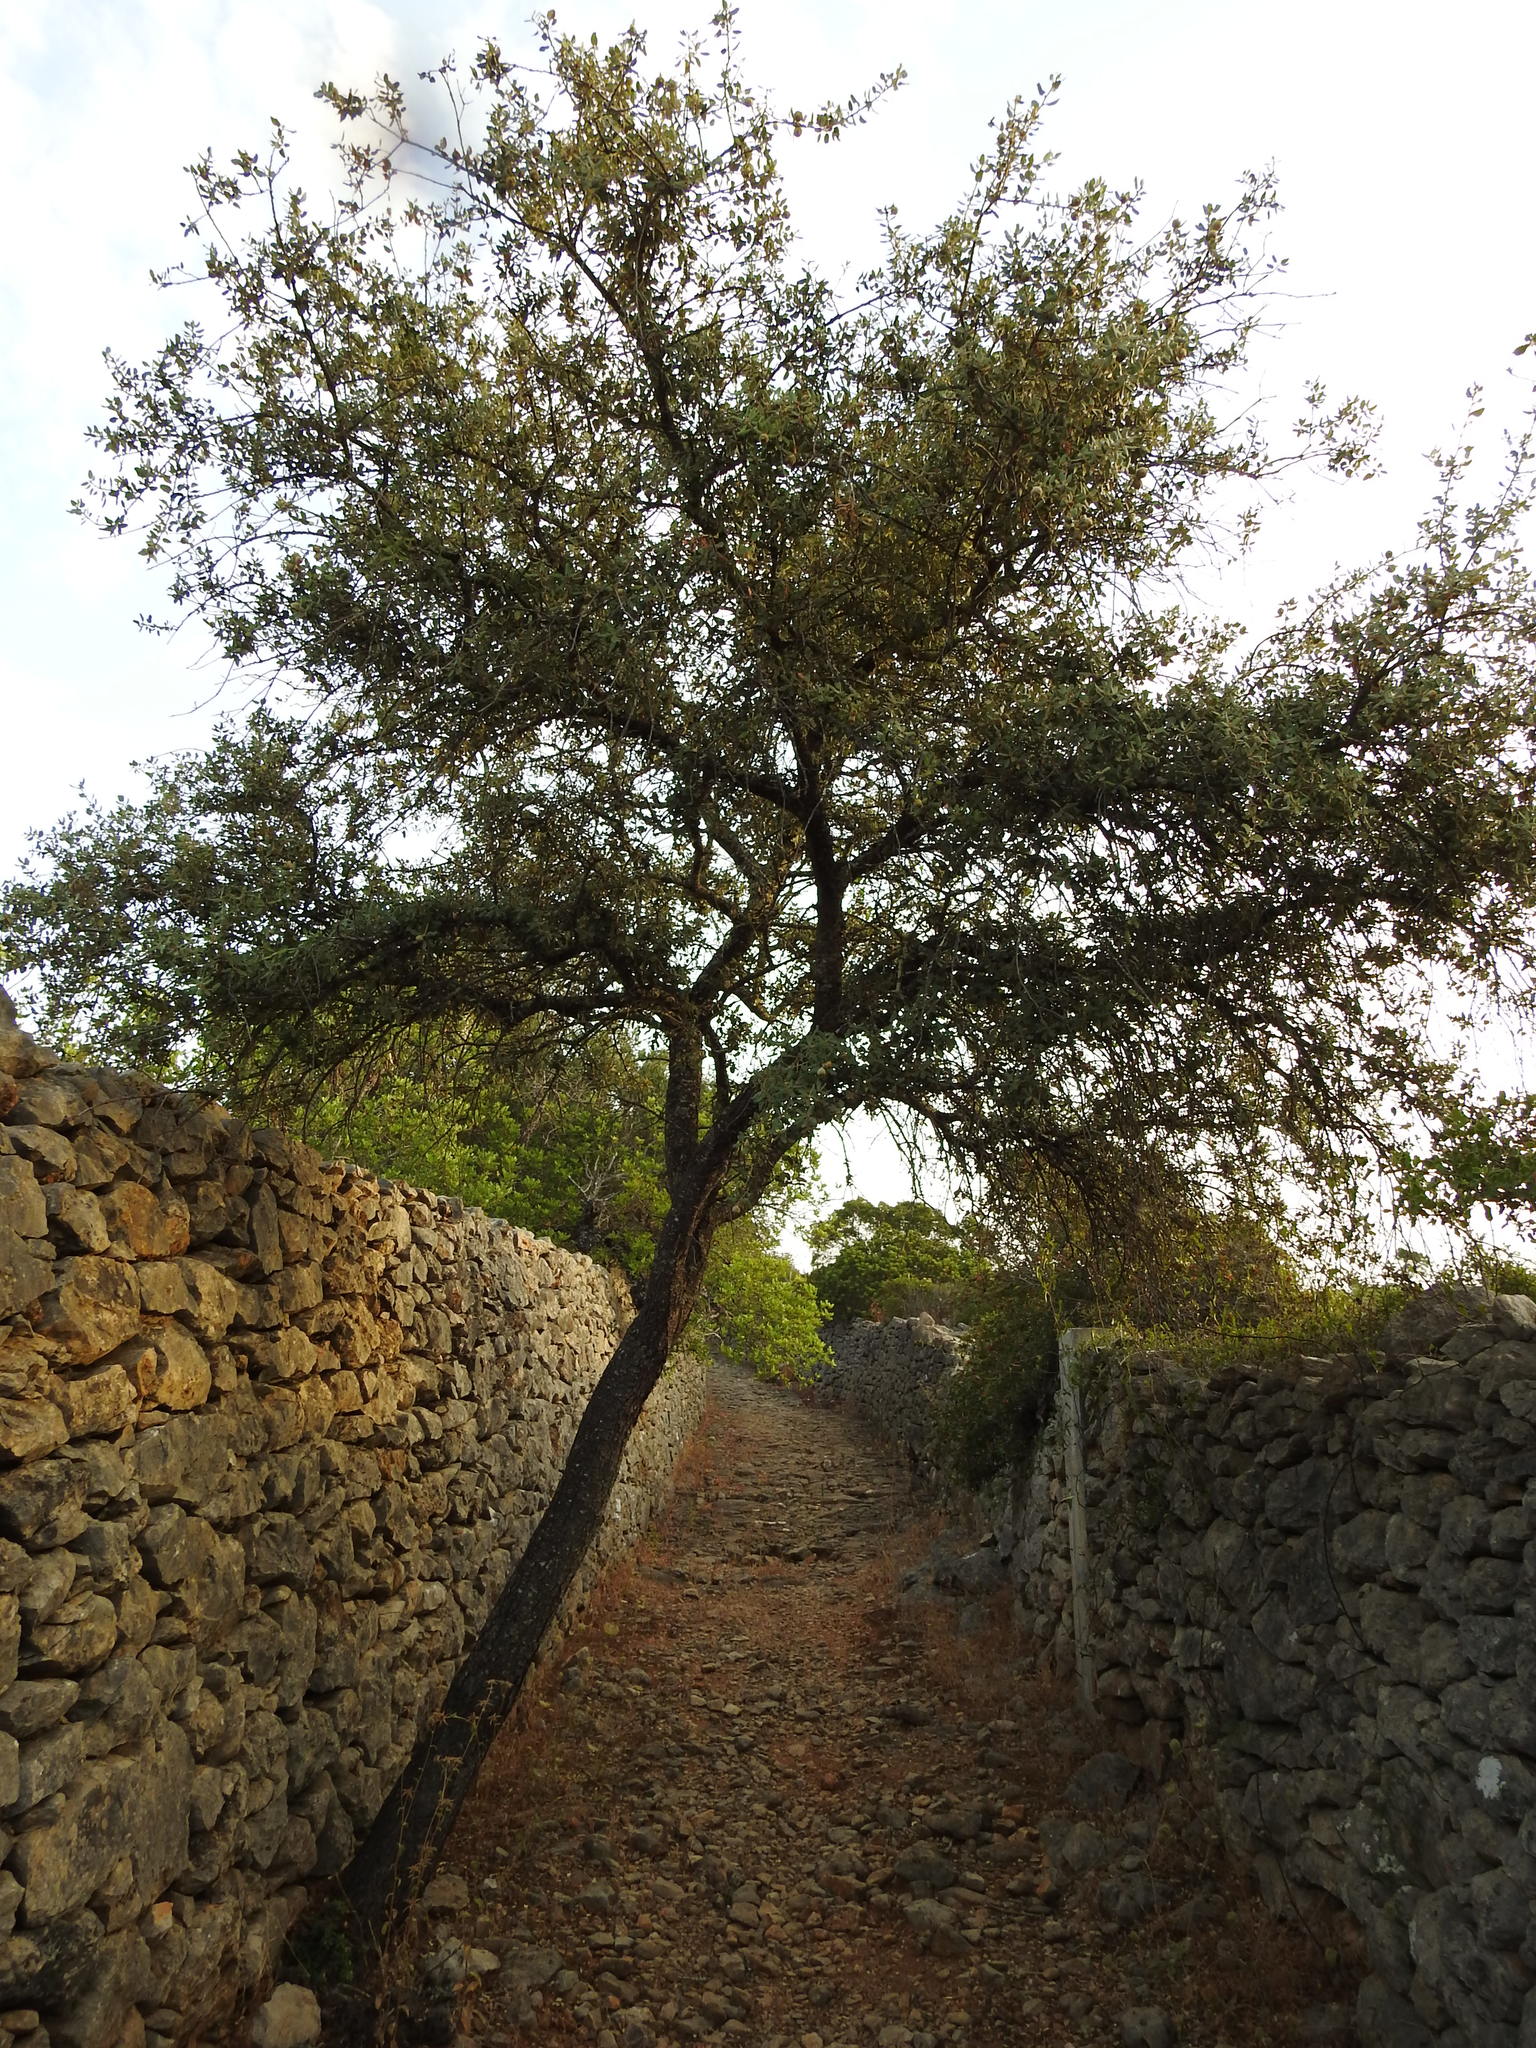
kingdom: Plantae
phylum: Tracheophyta
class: Magnoliopsida
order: Fagales
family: Fagaceae
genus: Quercus
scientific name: Quercus rotundifolia
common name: Holm oak
